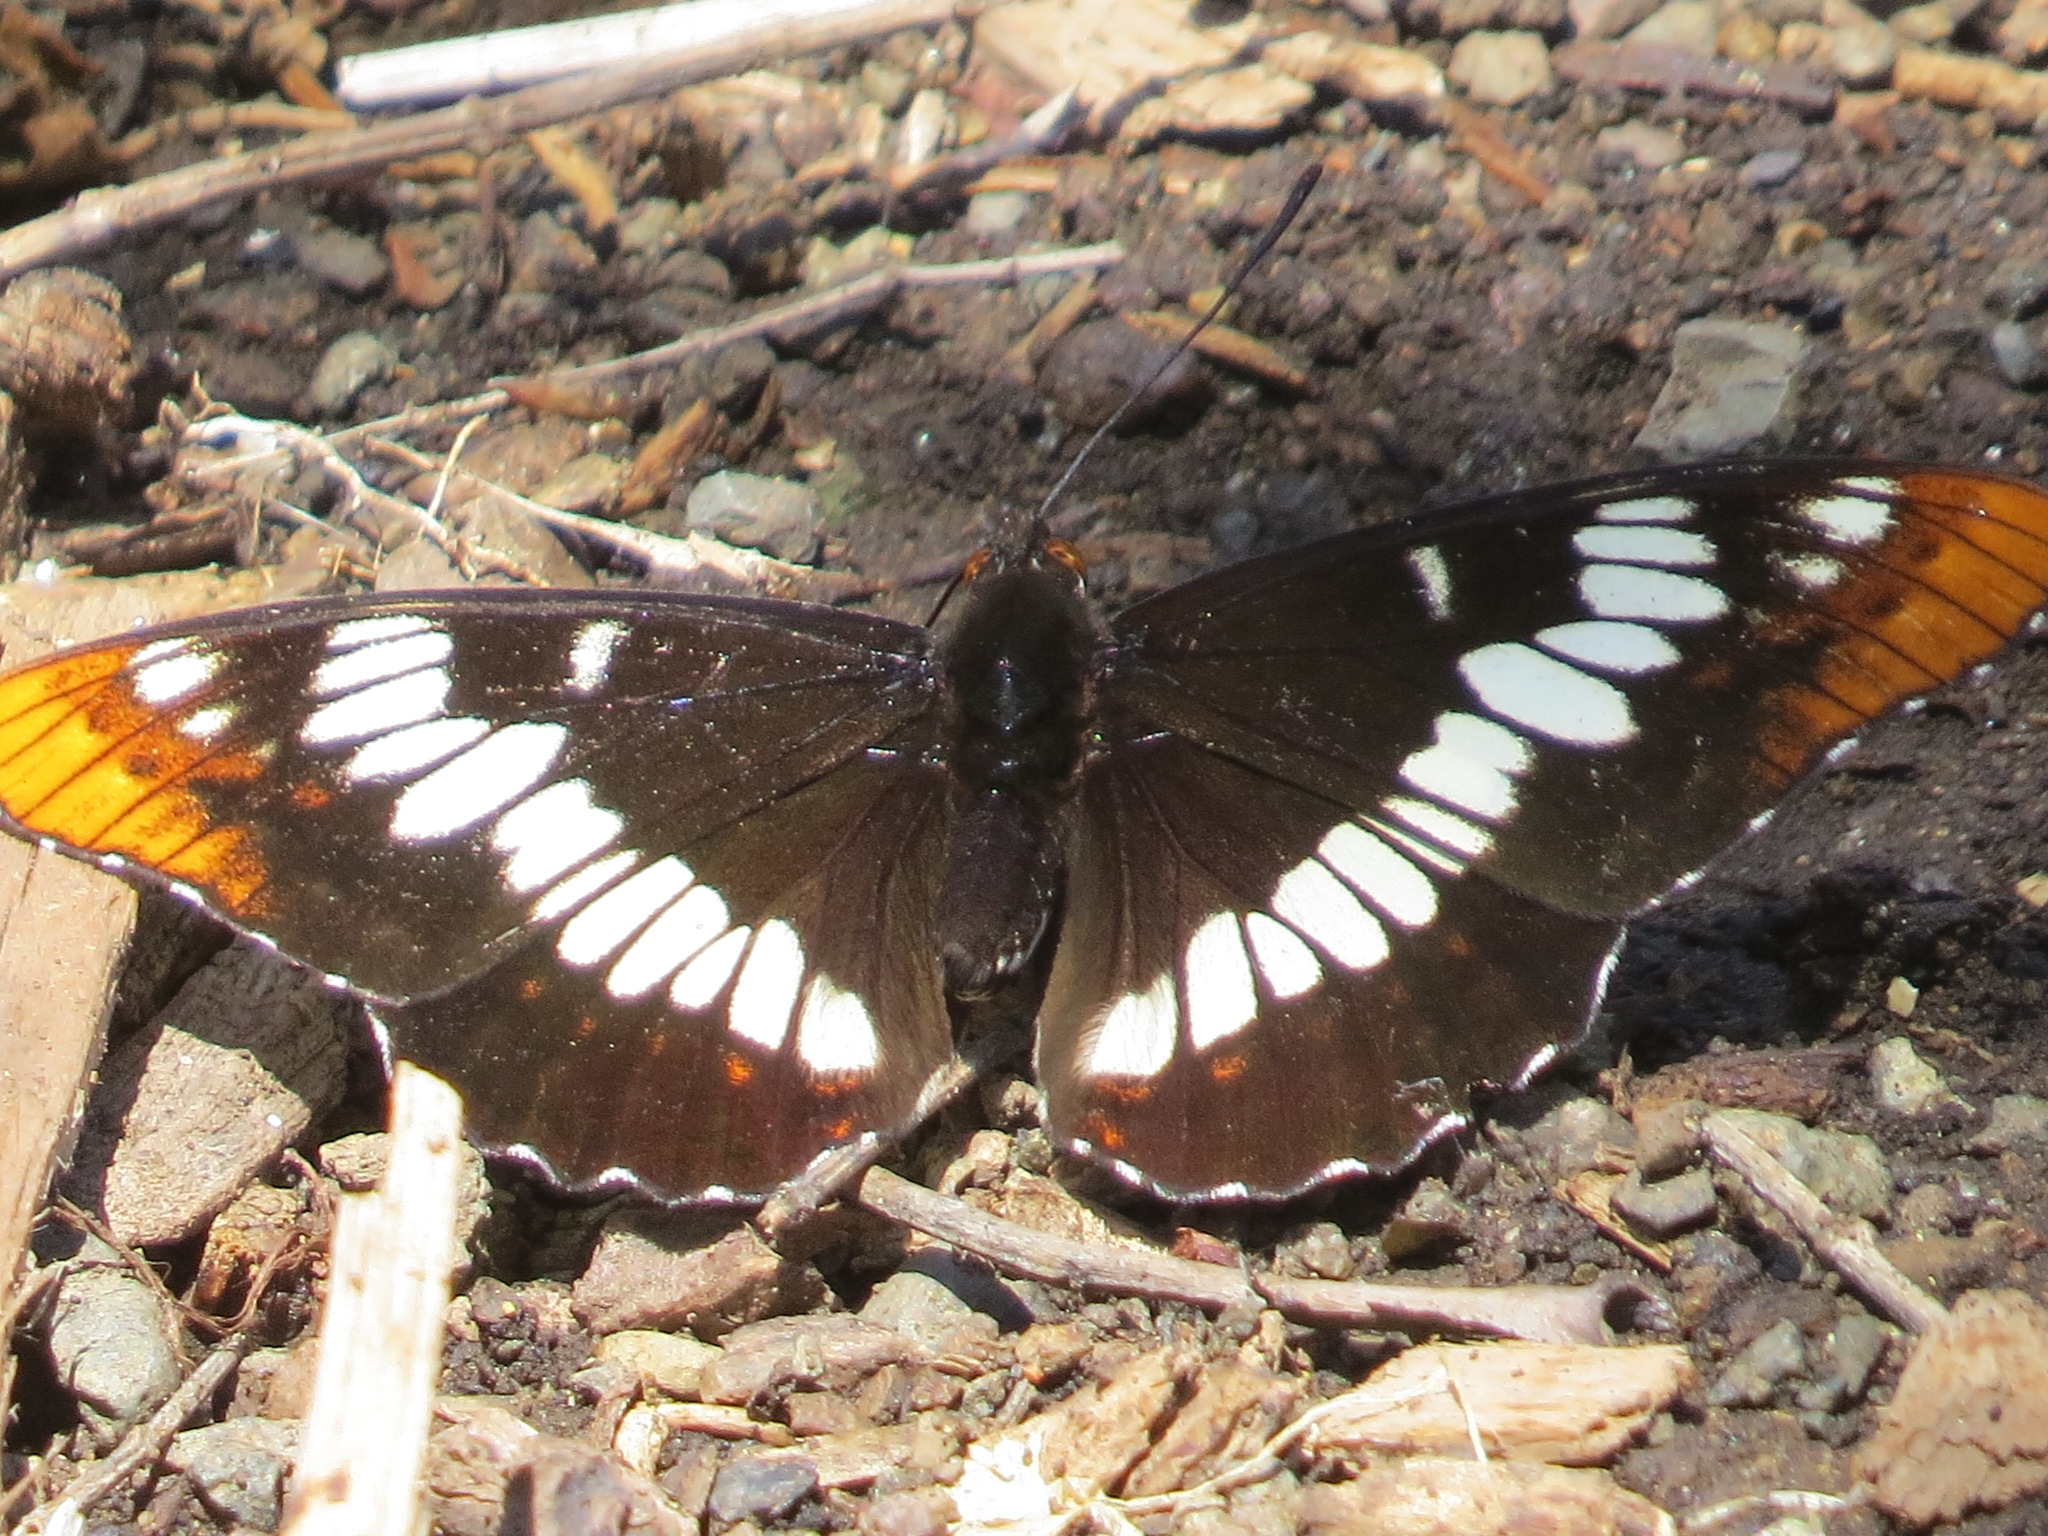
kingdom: Animalia
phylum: Arthropoda
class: Insecta
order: Lepidoptera
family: Nymphalidae
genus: Limenitis
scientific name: Limenitis lorquini
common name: Lorquin's admiral
